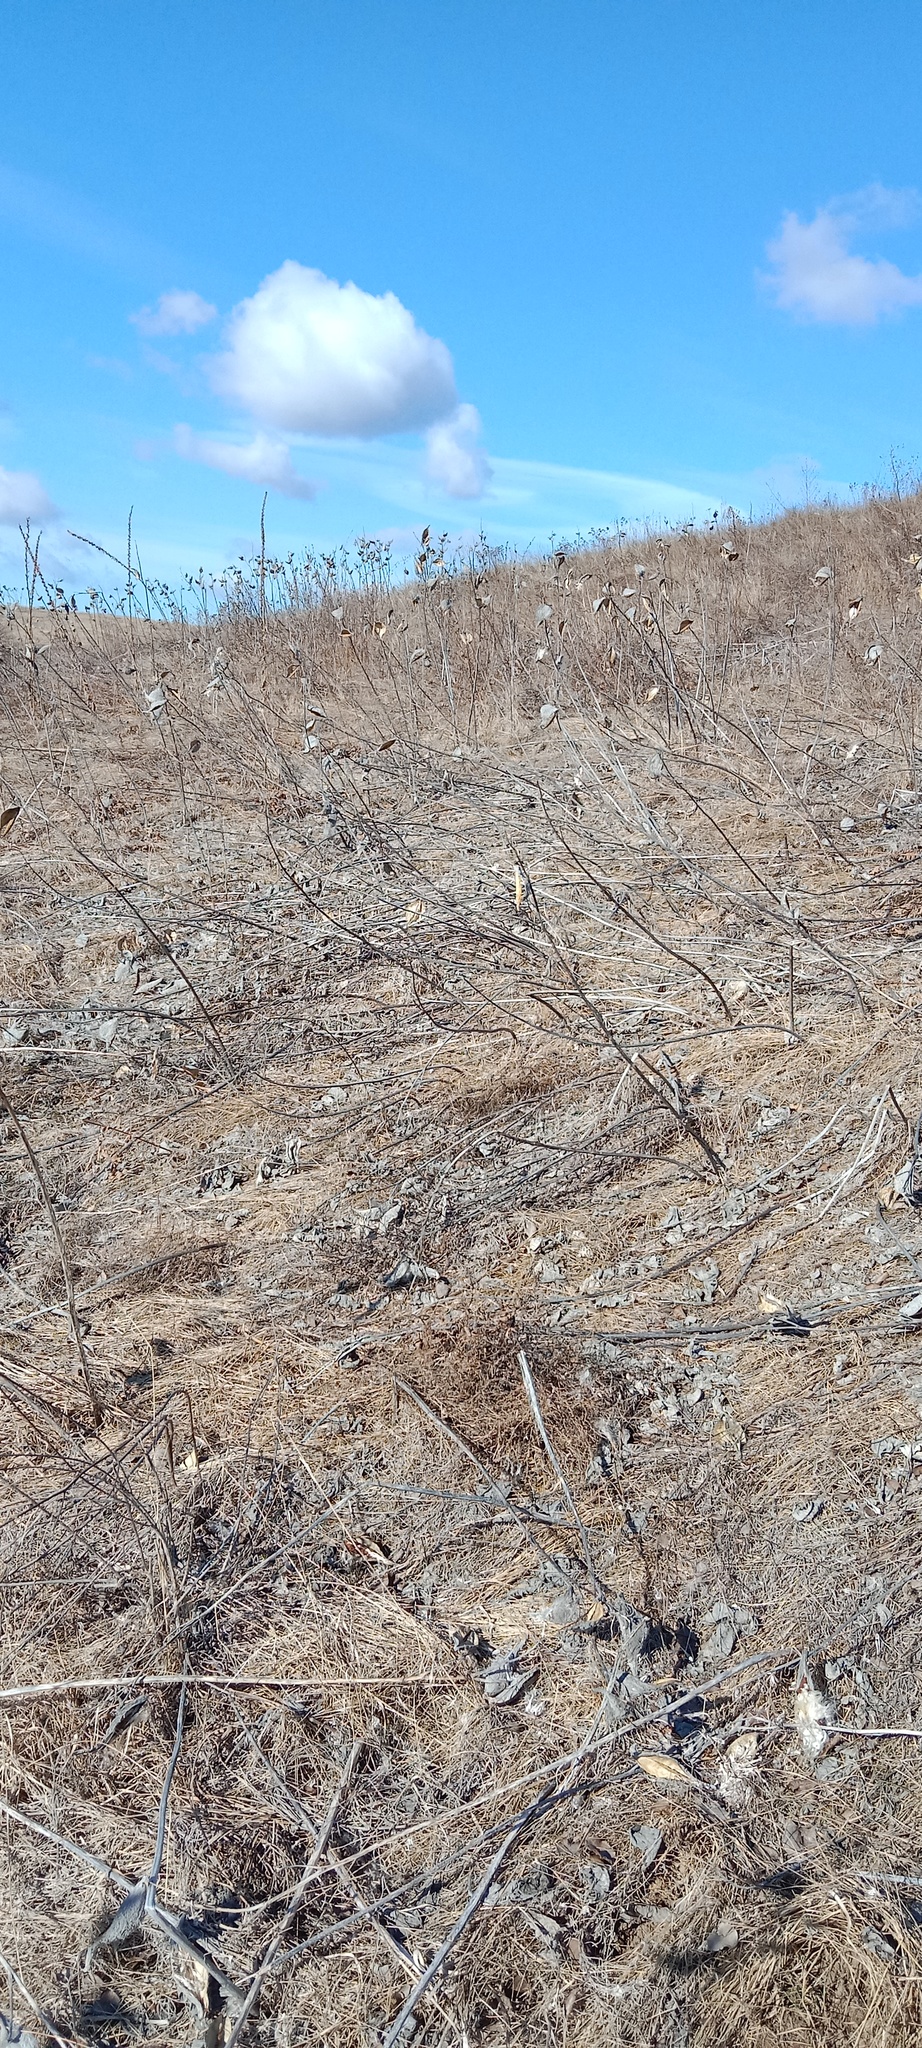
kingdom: Plantae
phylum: Tracheophyta
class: Magnoliopsida
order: Gentianales
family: Apocynaceae
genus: Asclepias
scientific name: Asclepias syriaca
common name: Common milkweed
